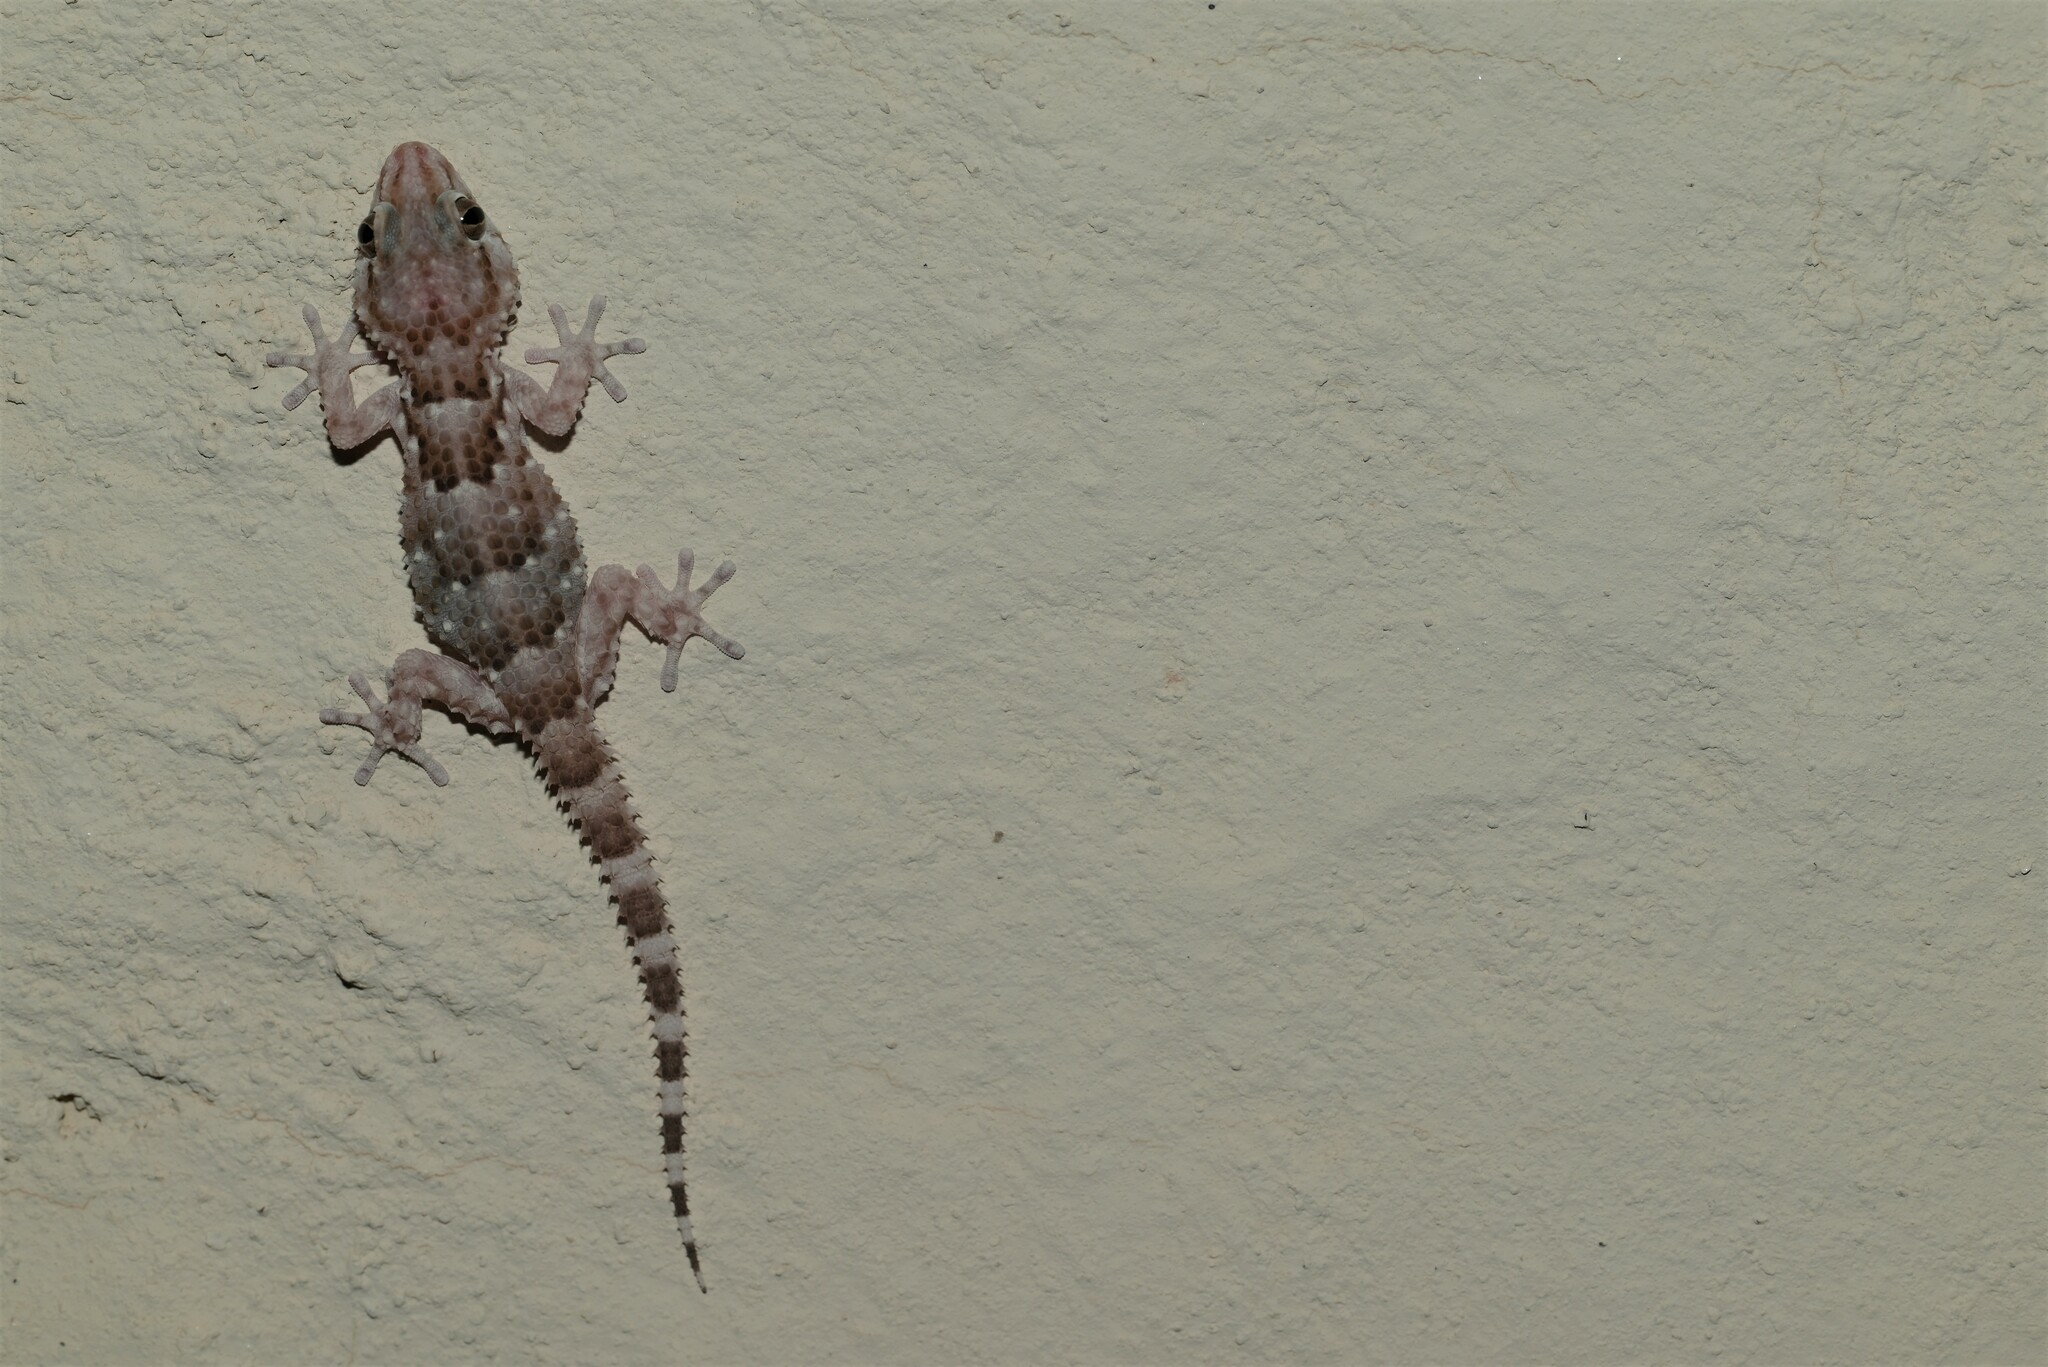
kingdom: Animalia
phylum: Chordata
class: Squamata
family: Gekkonidae
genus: Chondrodactylus
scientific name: Chondrodactylus bibronii
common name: Bibron's gecko
